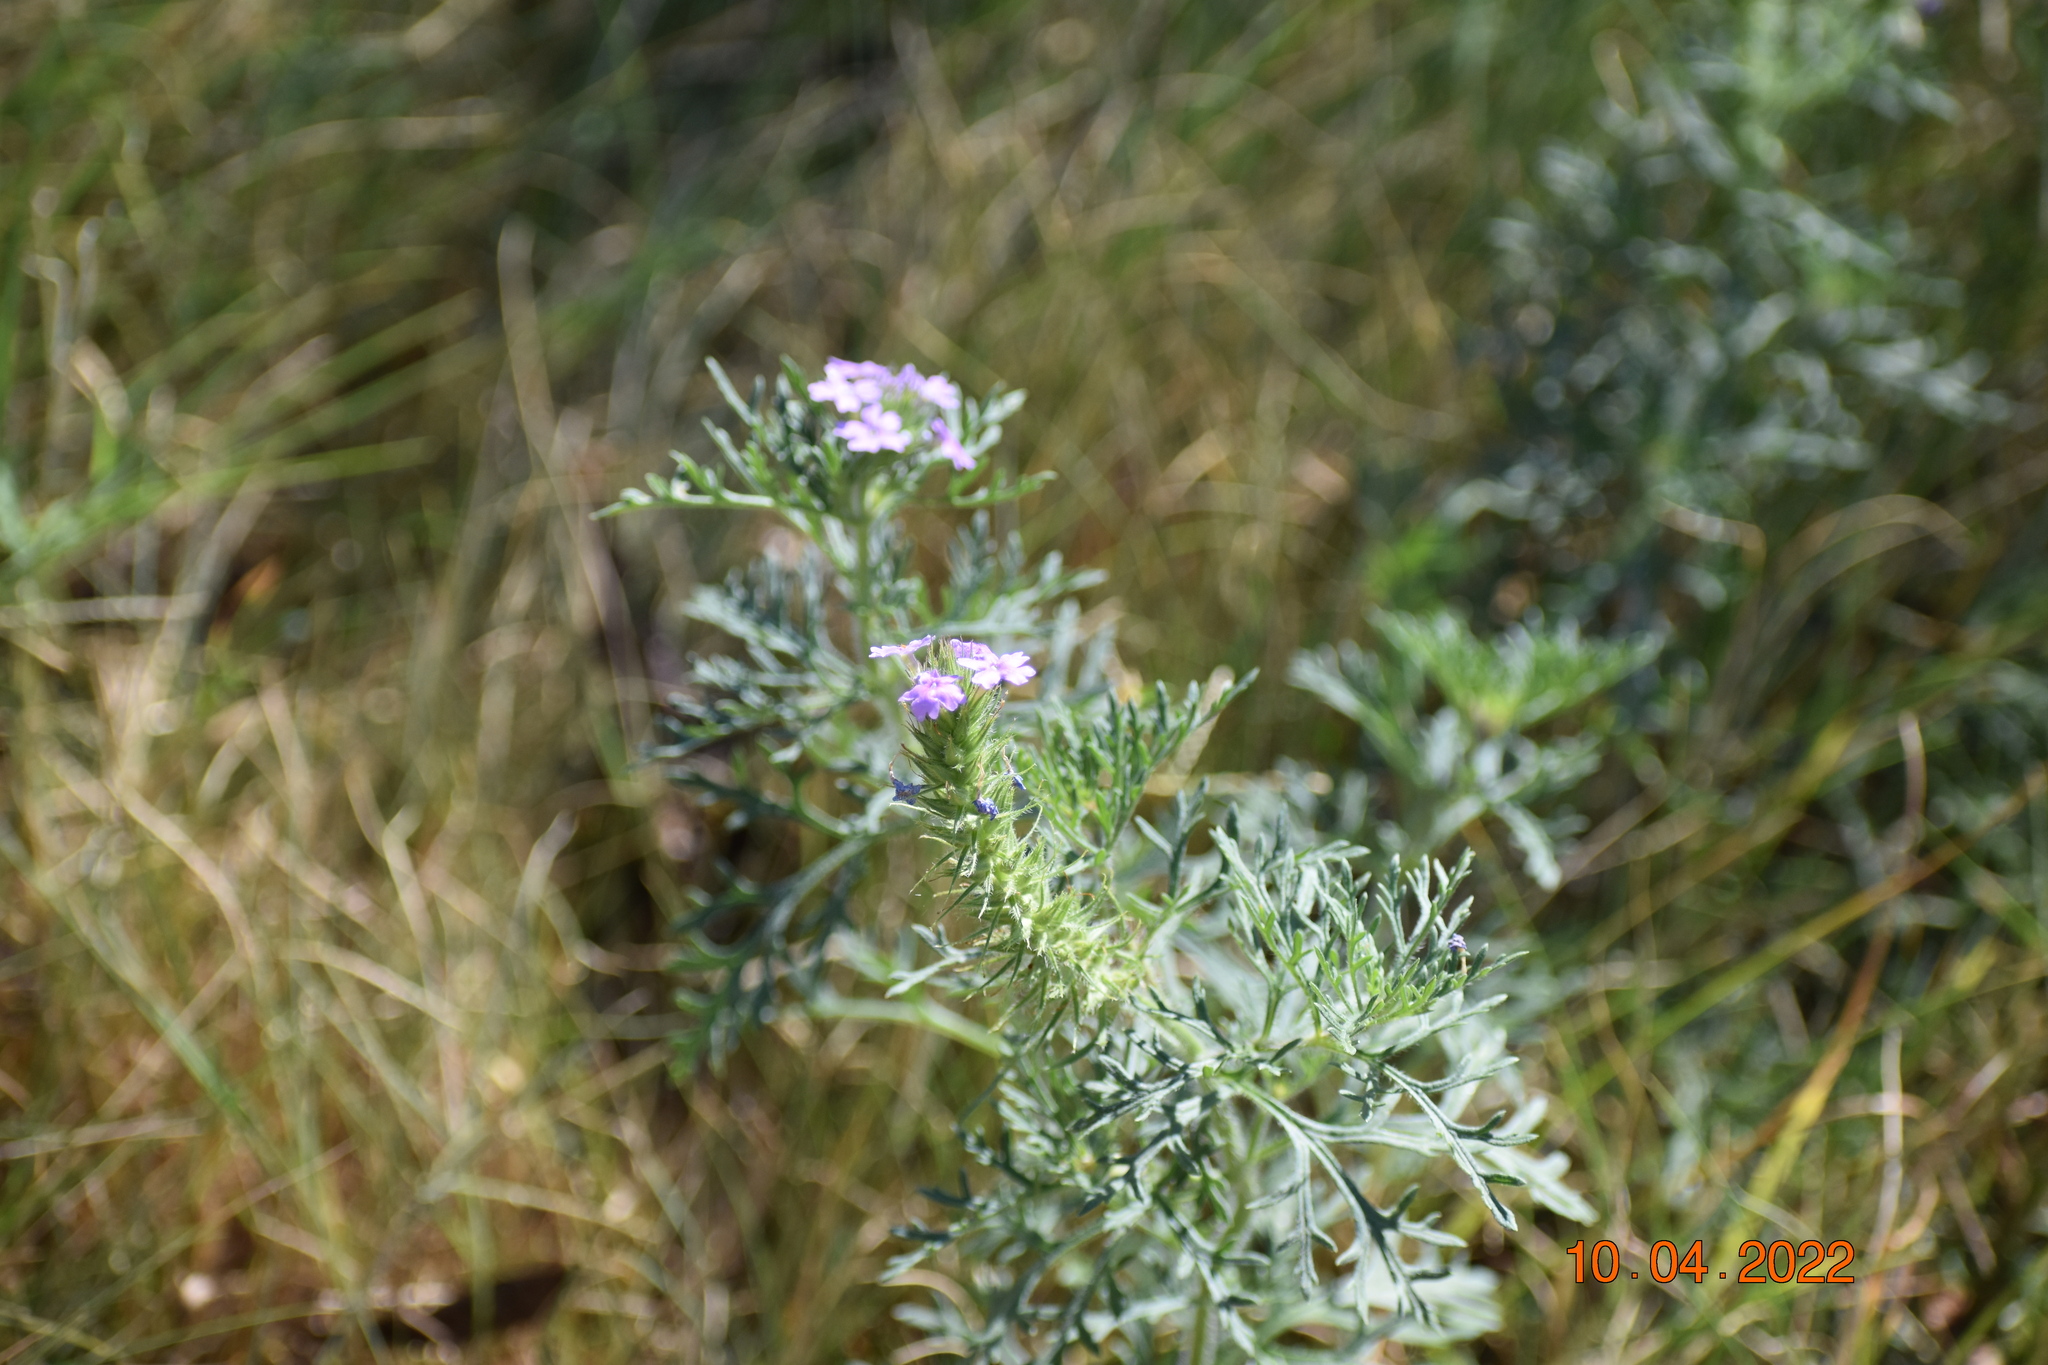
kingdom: Plantae
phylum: Tracheophyta
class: Magnoliopsida
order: Lamiales
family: Verbenaceae
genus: Verbena
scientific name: Verbena bipinnatifida
